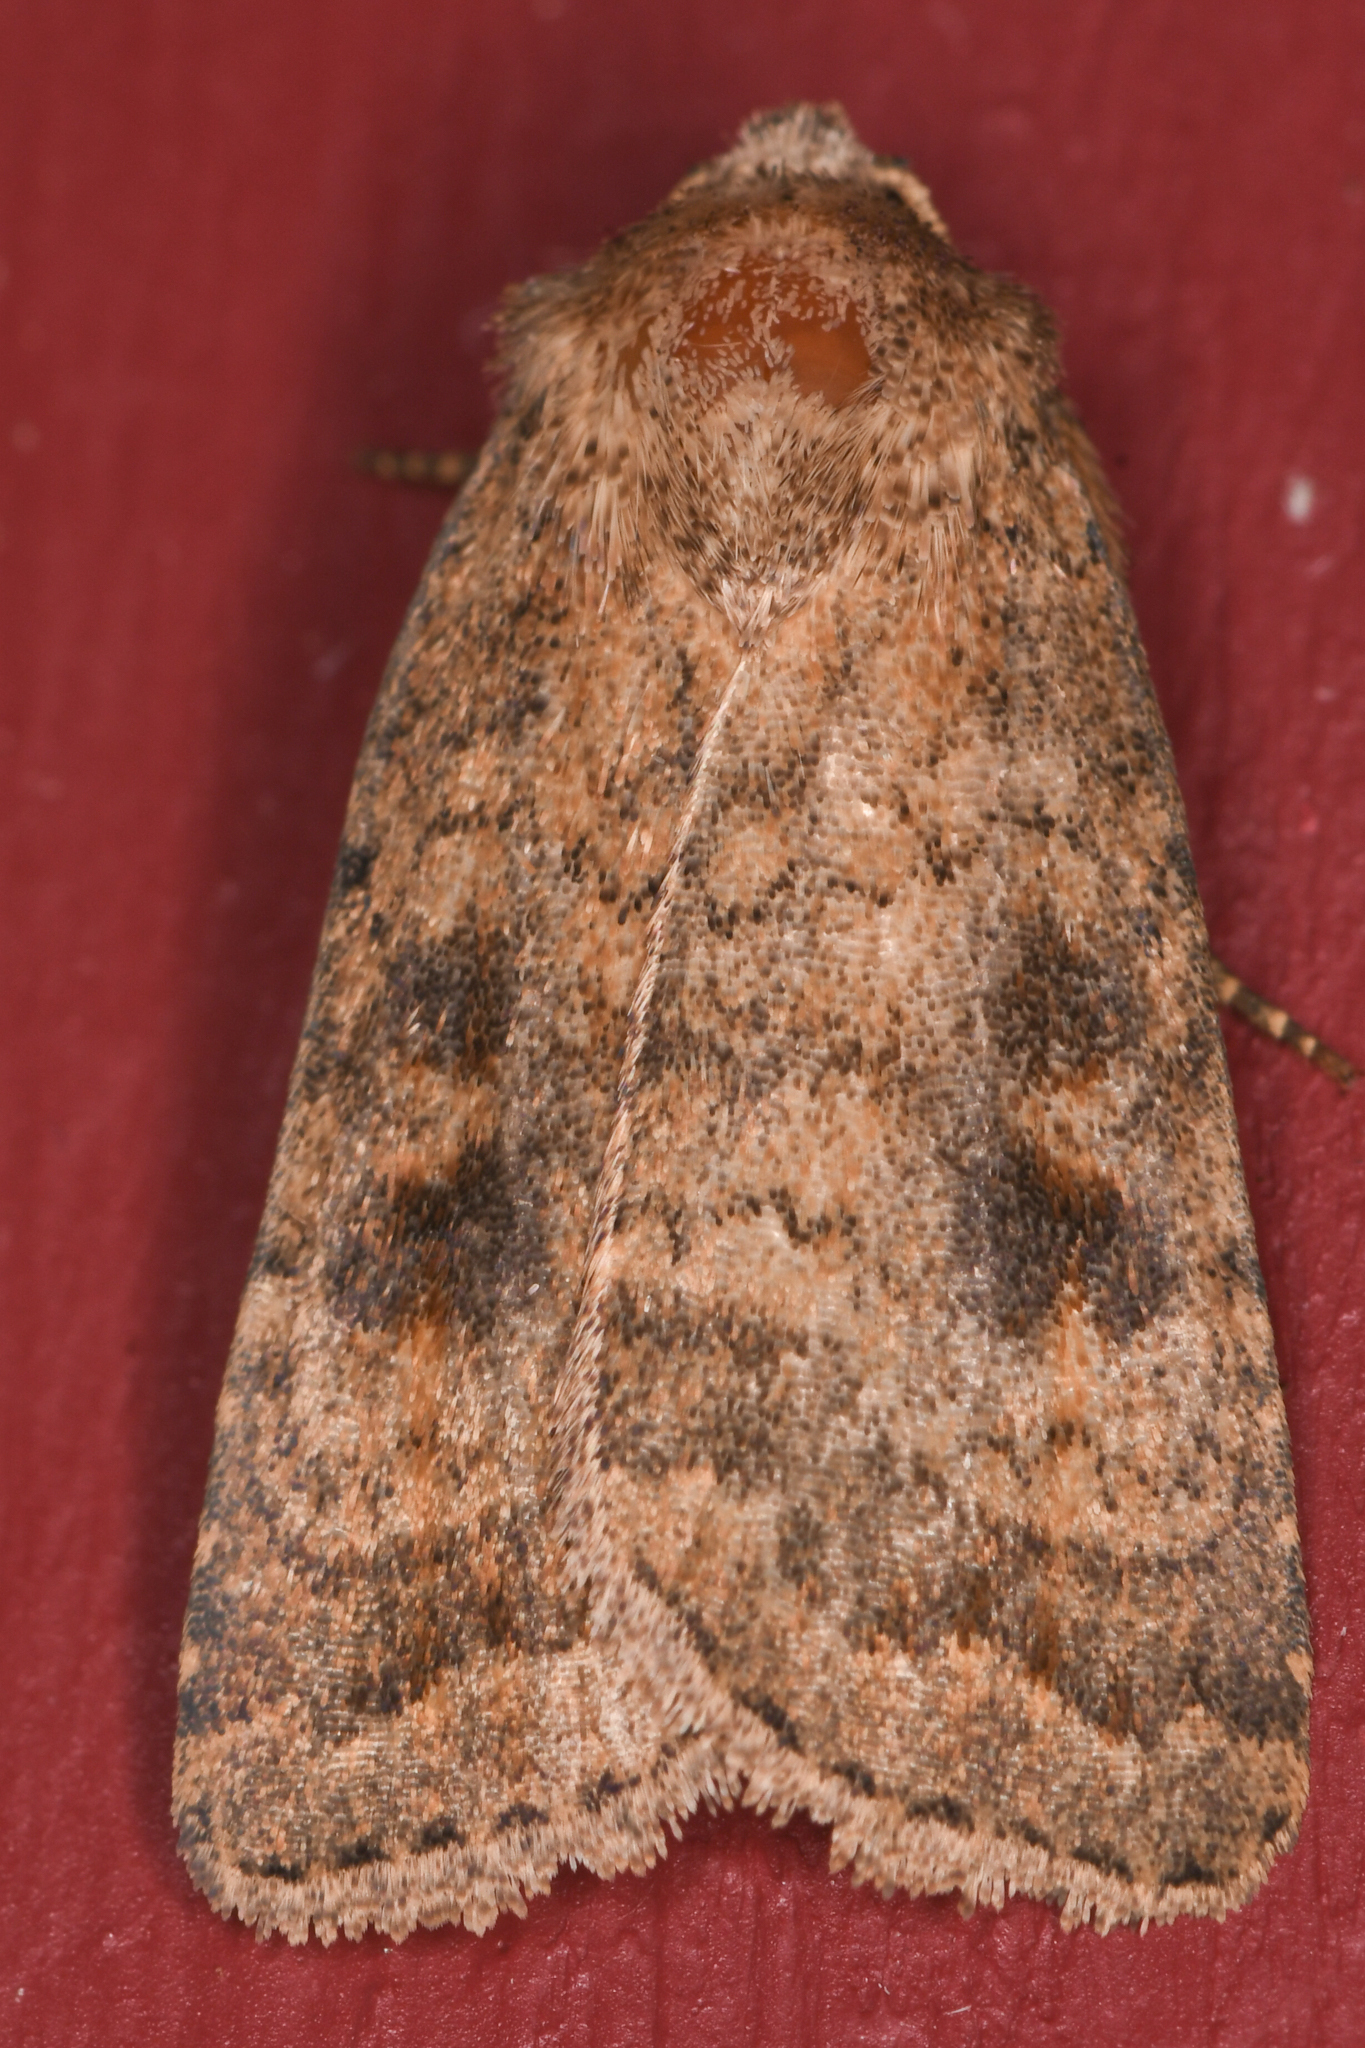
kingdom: Animalia
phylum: Arthropoda
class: Insecta
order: Lepidoptera
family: Noctuidae
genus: Caradrina
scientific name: Caradrina morpheus
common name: Mottled rustic
